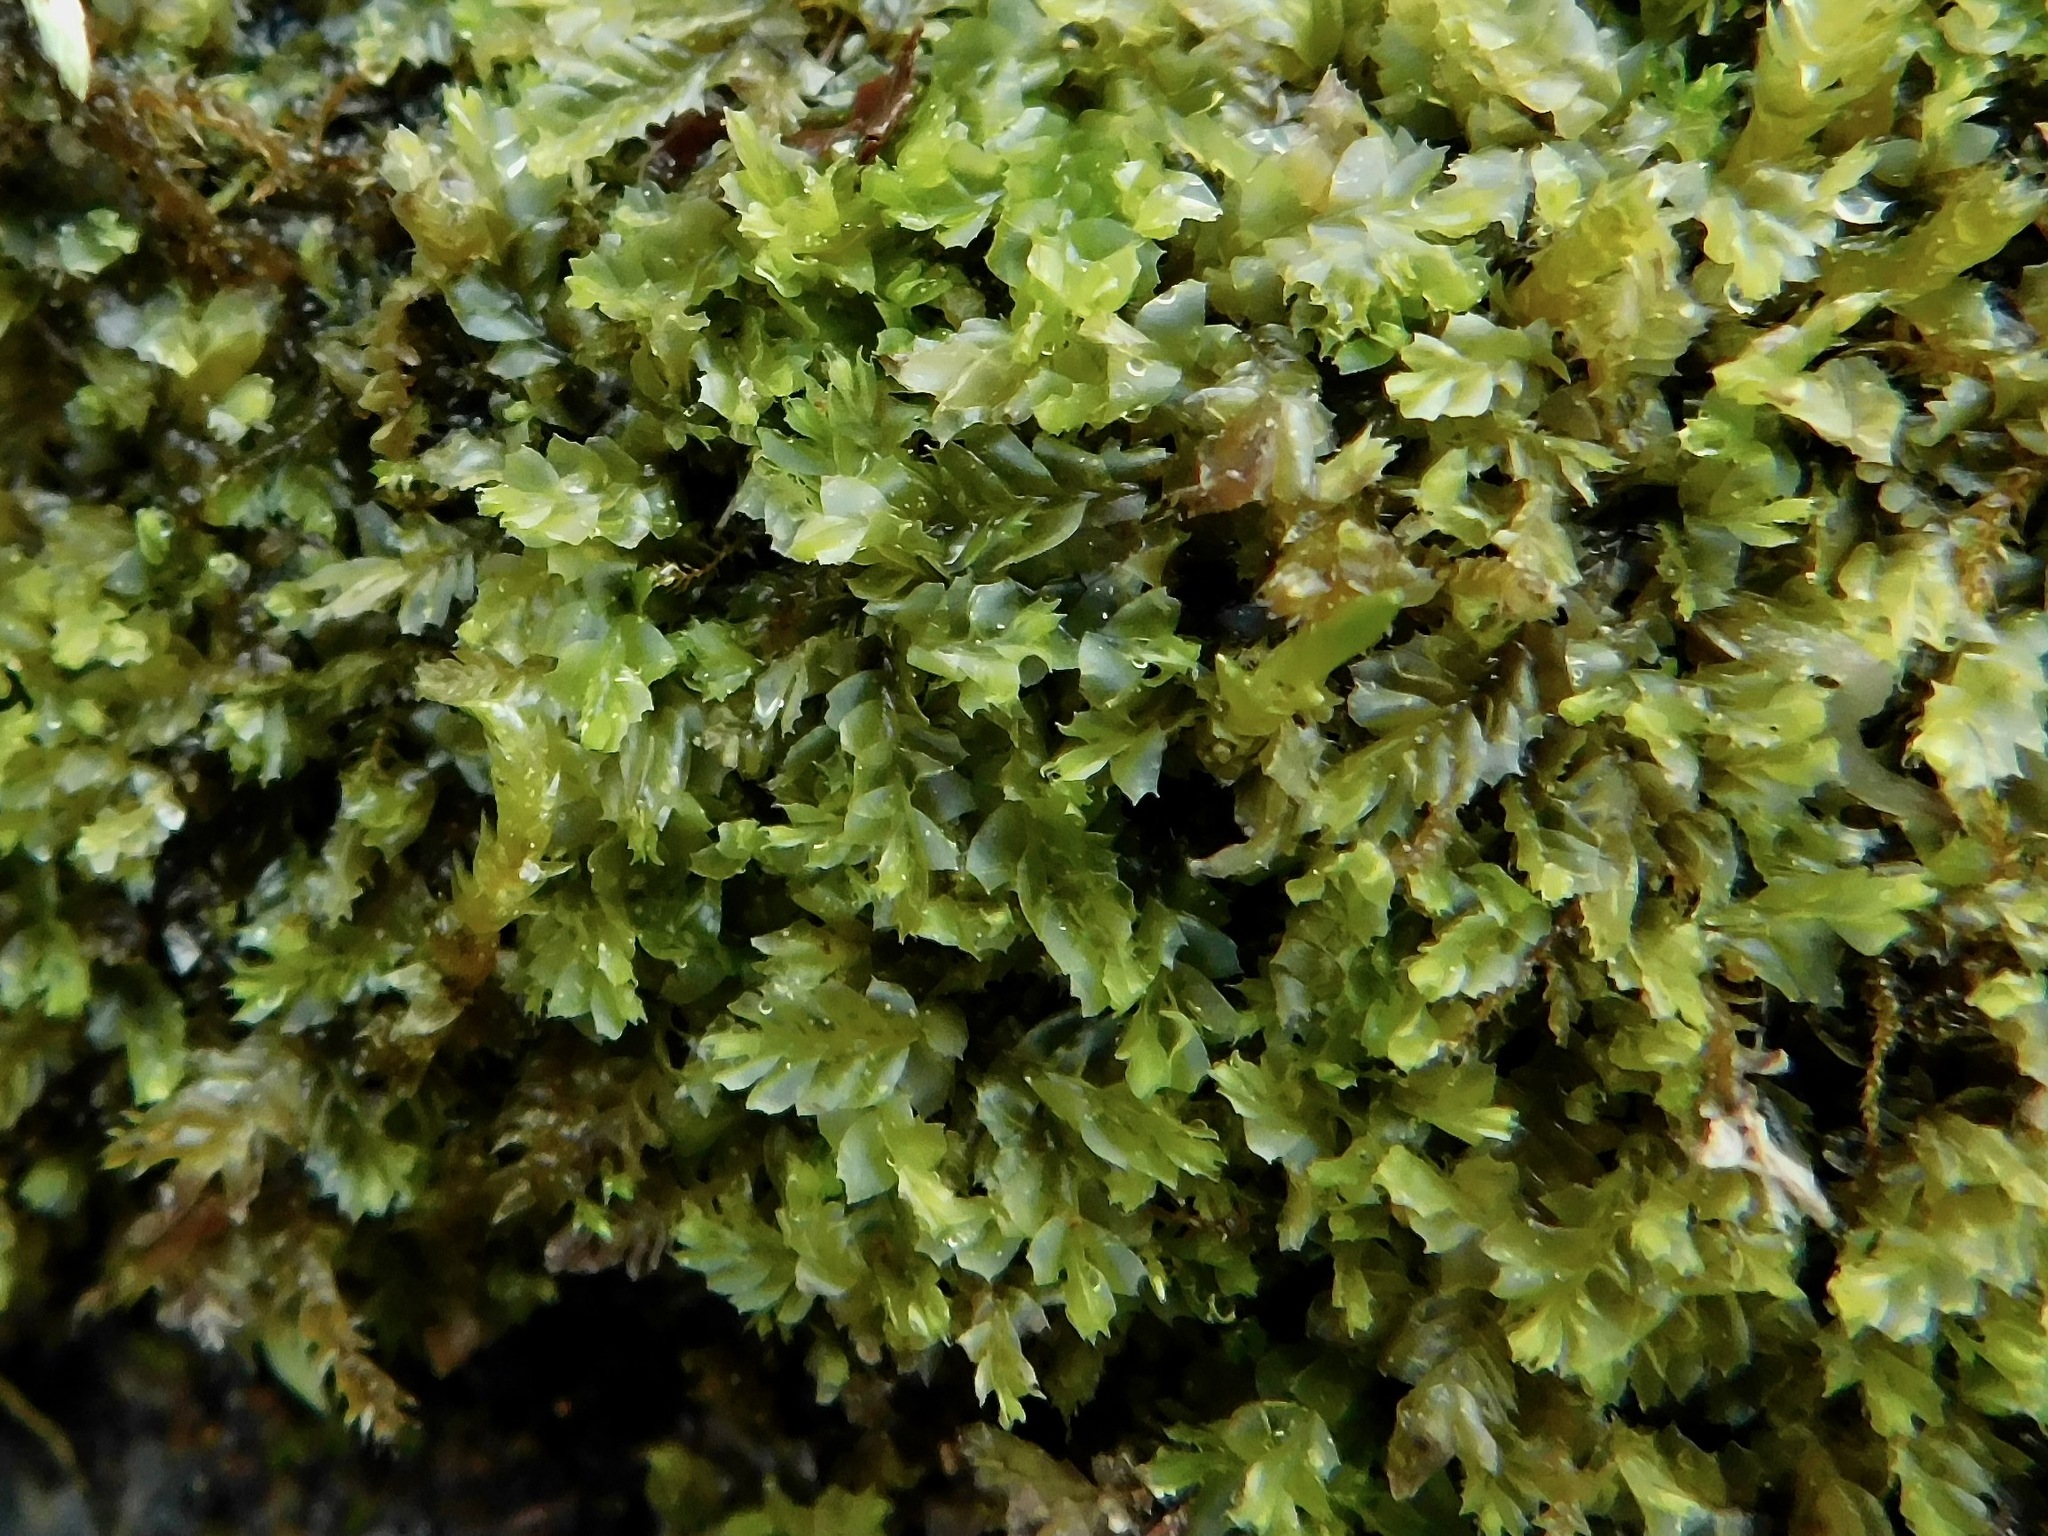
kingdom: Plantae
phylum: Marchantiophyta
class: Jungermanniopsida
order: Jungermanniales
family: Lophocoleaceae
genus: Lophocolea
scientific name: Lophocolea appalachiana
